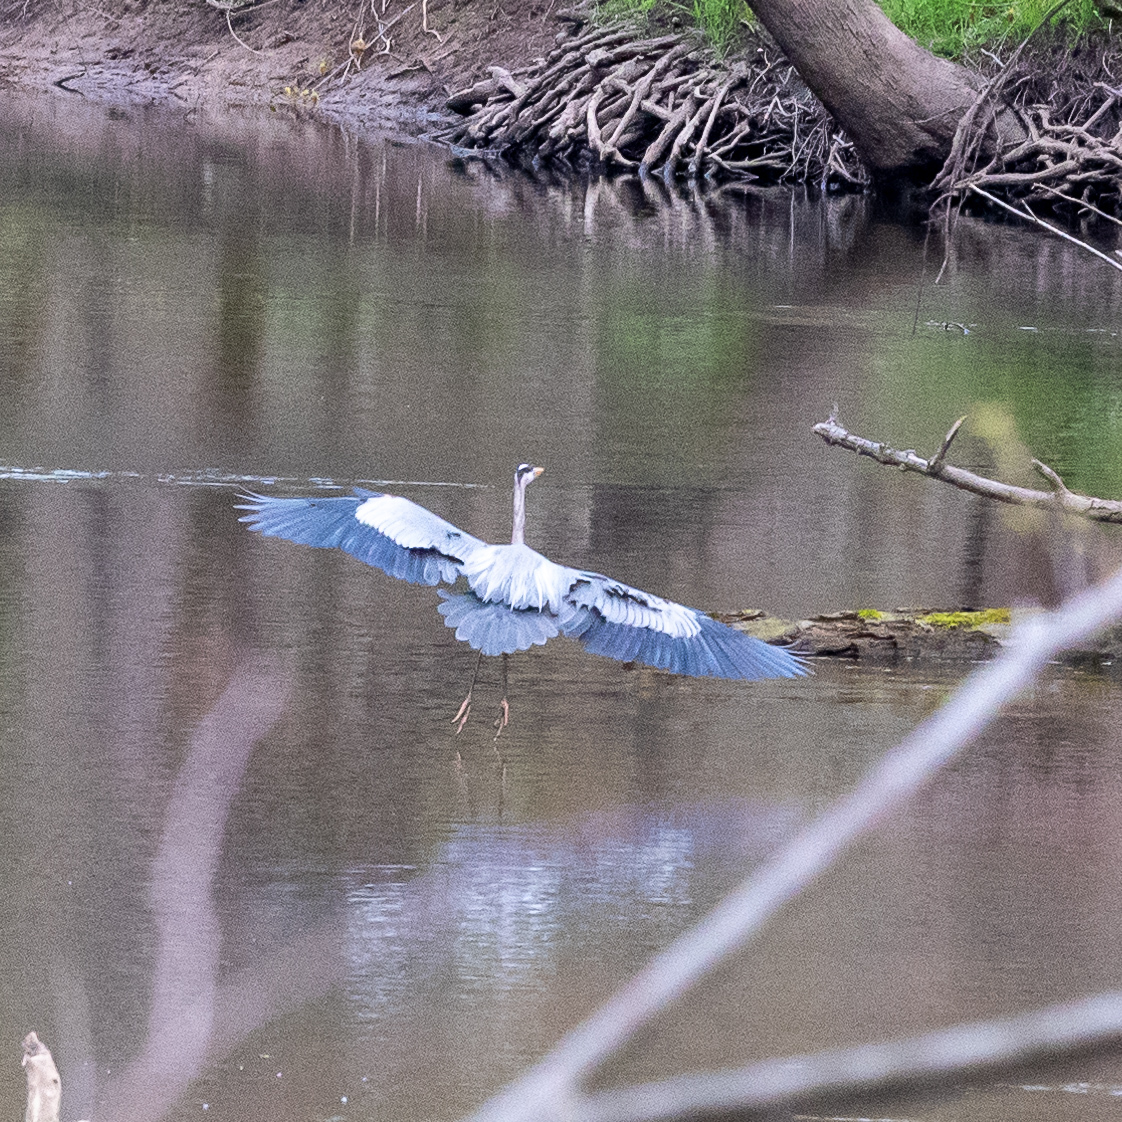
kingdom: Animalia
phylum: Chordata
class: Aves
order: Pelecaniformes
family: Ardeidae
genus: Ardea
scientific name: Ardea herodias
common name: Great blue heron
